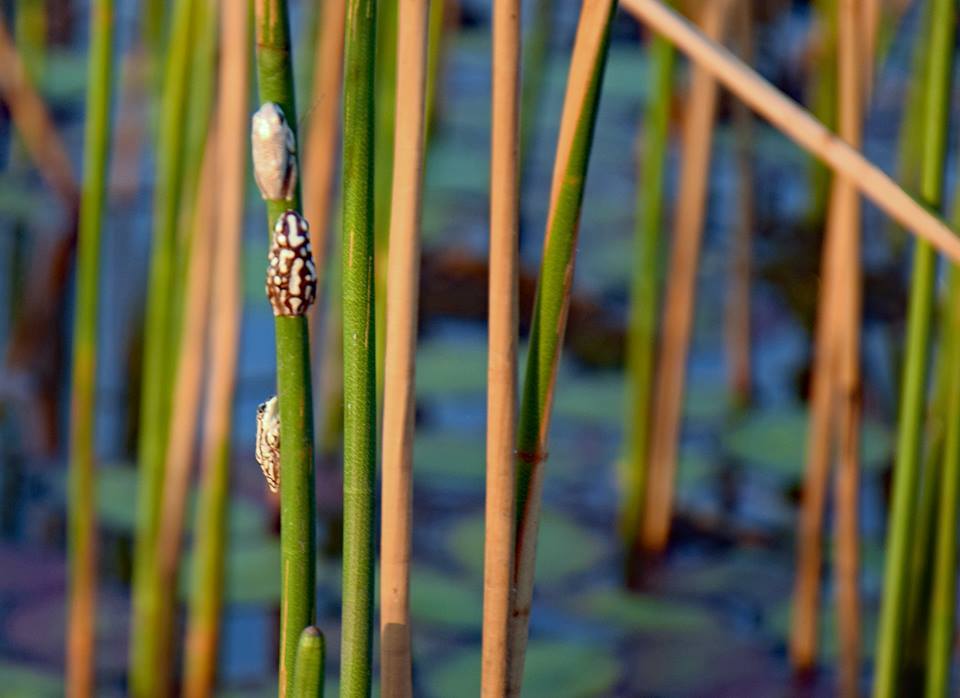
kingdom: Animalia
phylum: Chordata
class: Amphibia
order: Anura
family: Hyperoliidae
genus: Hyperolius
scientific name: Hyperolius parallelus
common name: Angolan reed frog
